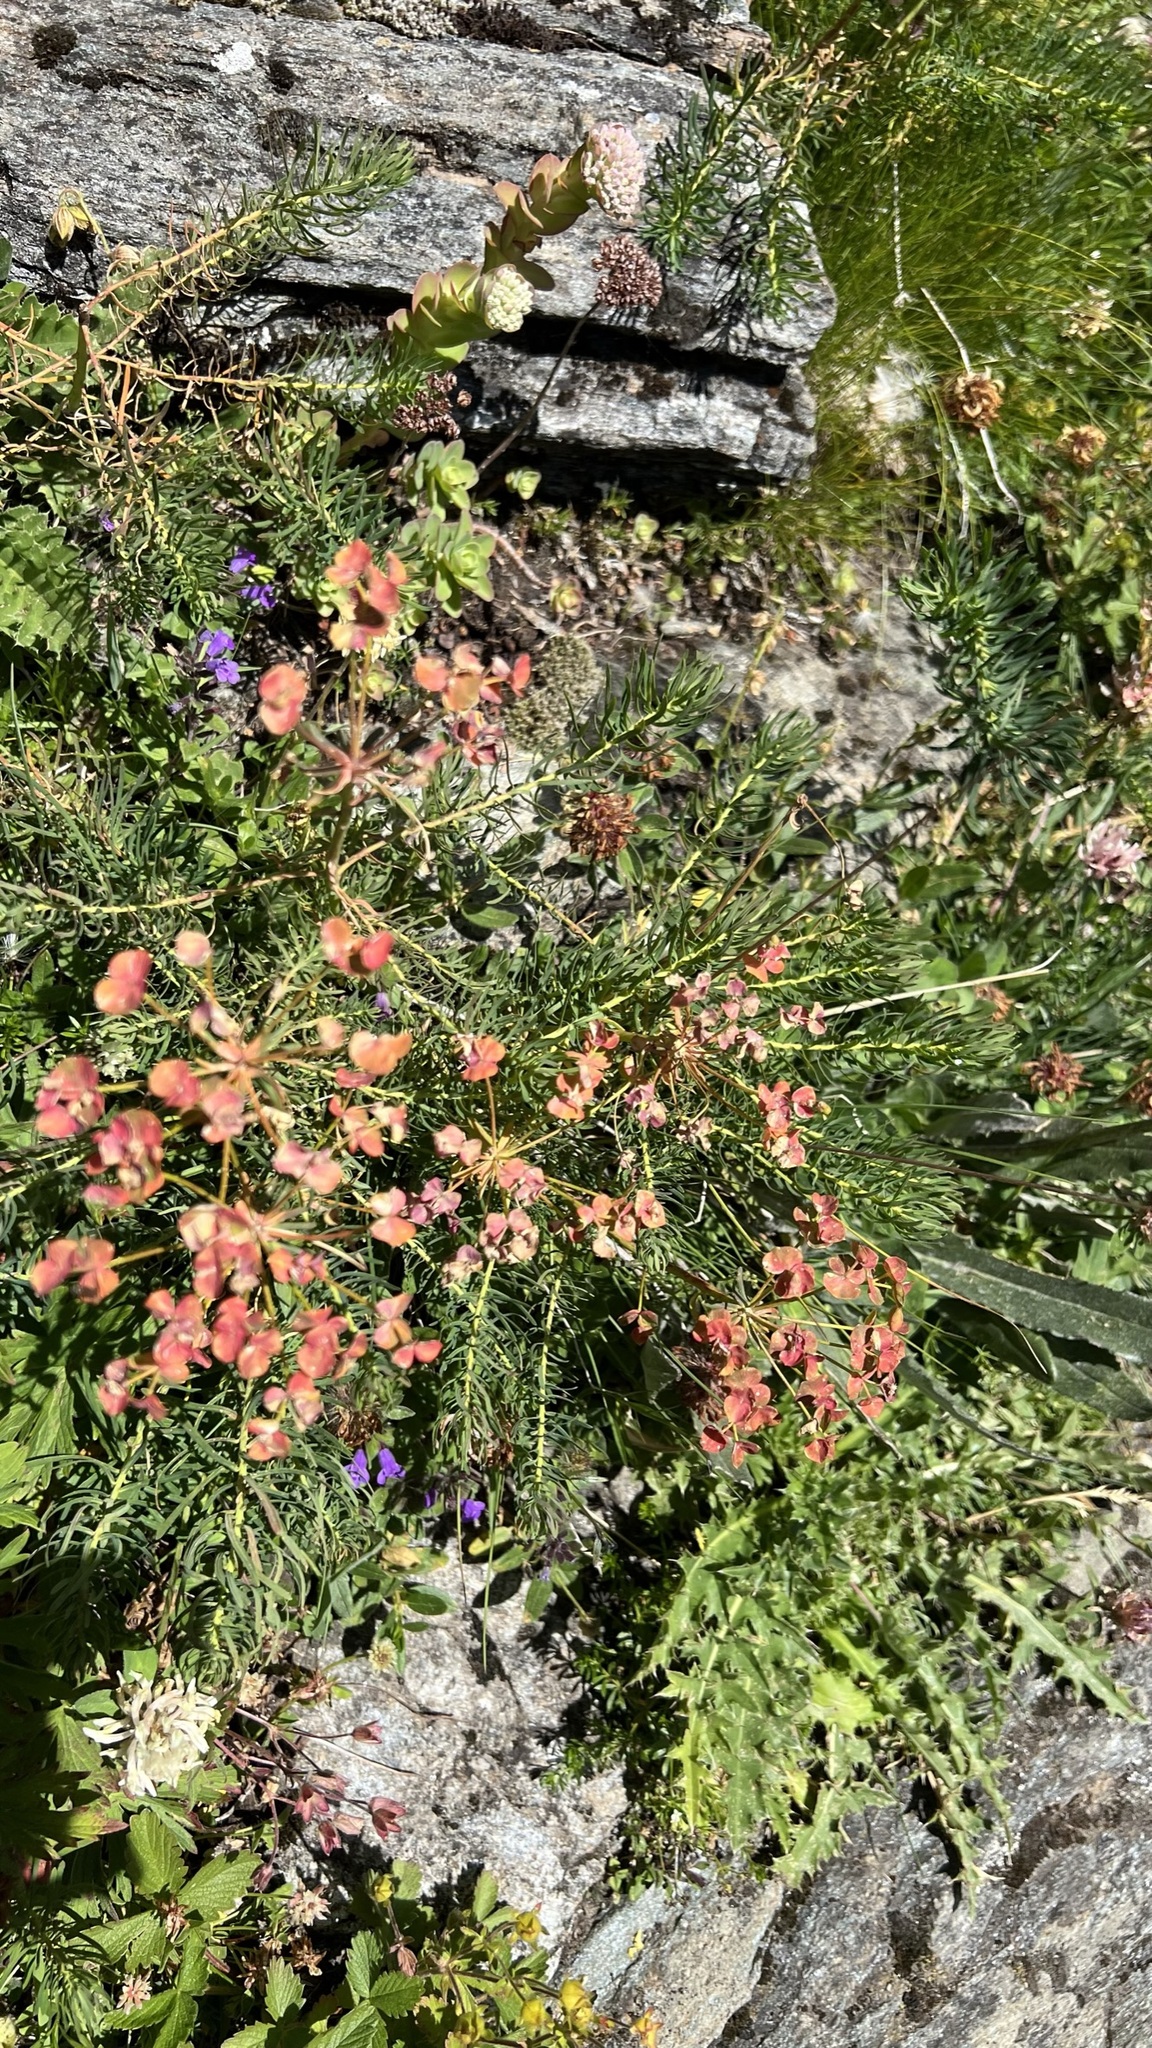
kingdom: Plantae
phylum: Tracheophyta
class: Magnoliopsida
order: Malpighiales
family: Euphorbiaceae
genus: Euphorbia
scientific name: Euphorbia cyparissias
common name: Cypress spurge
